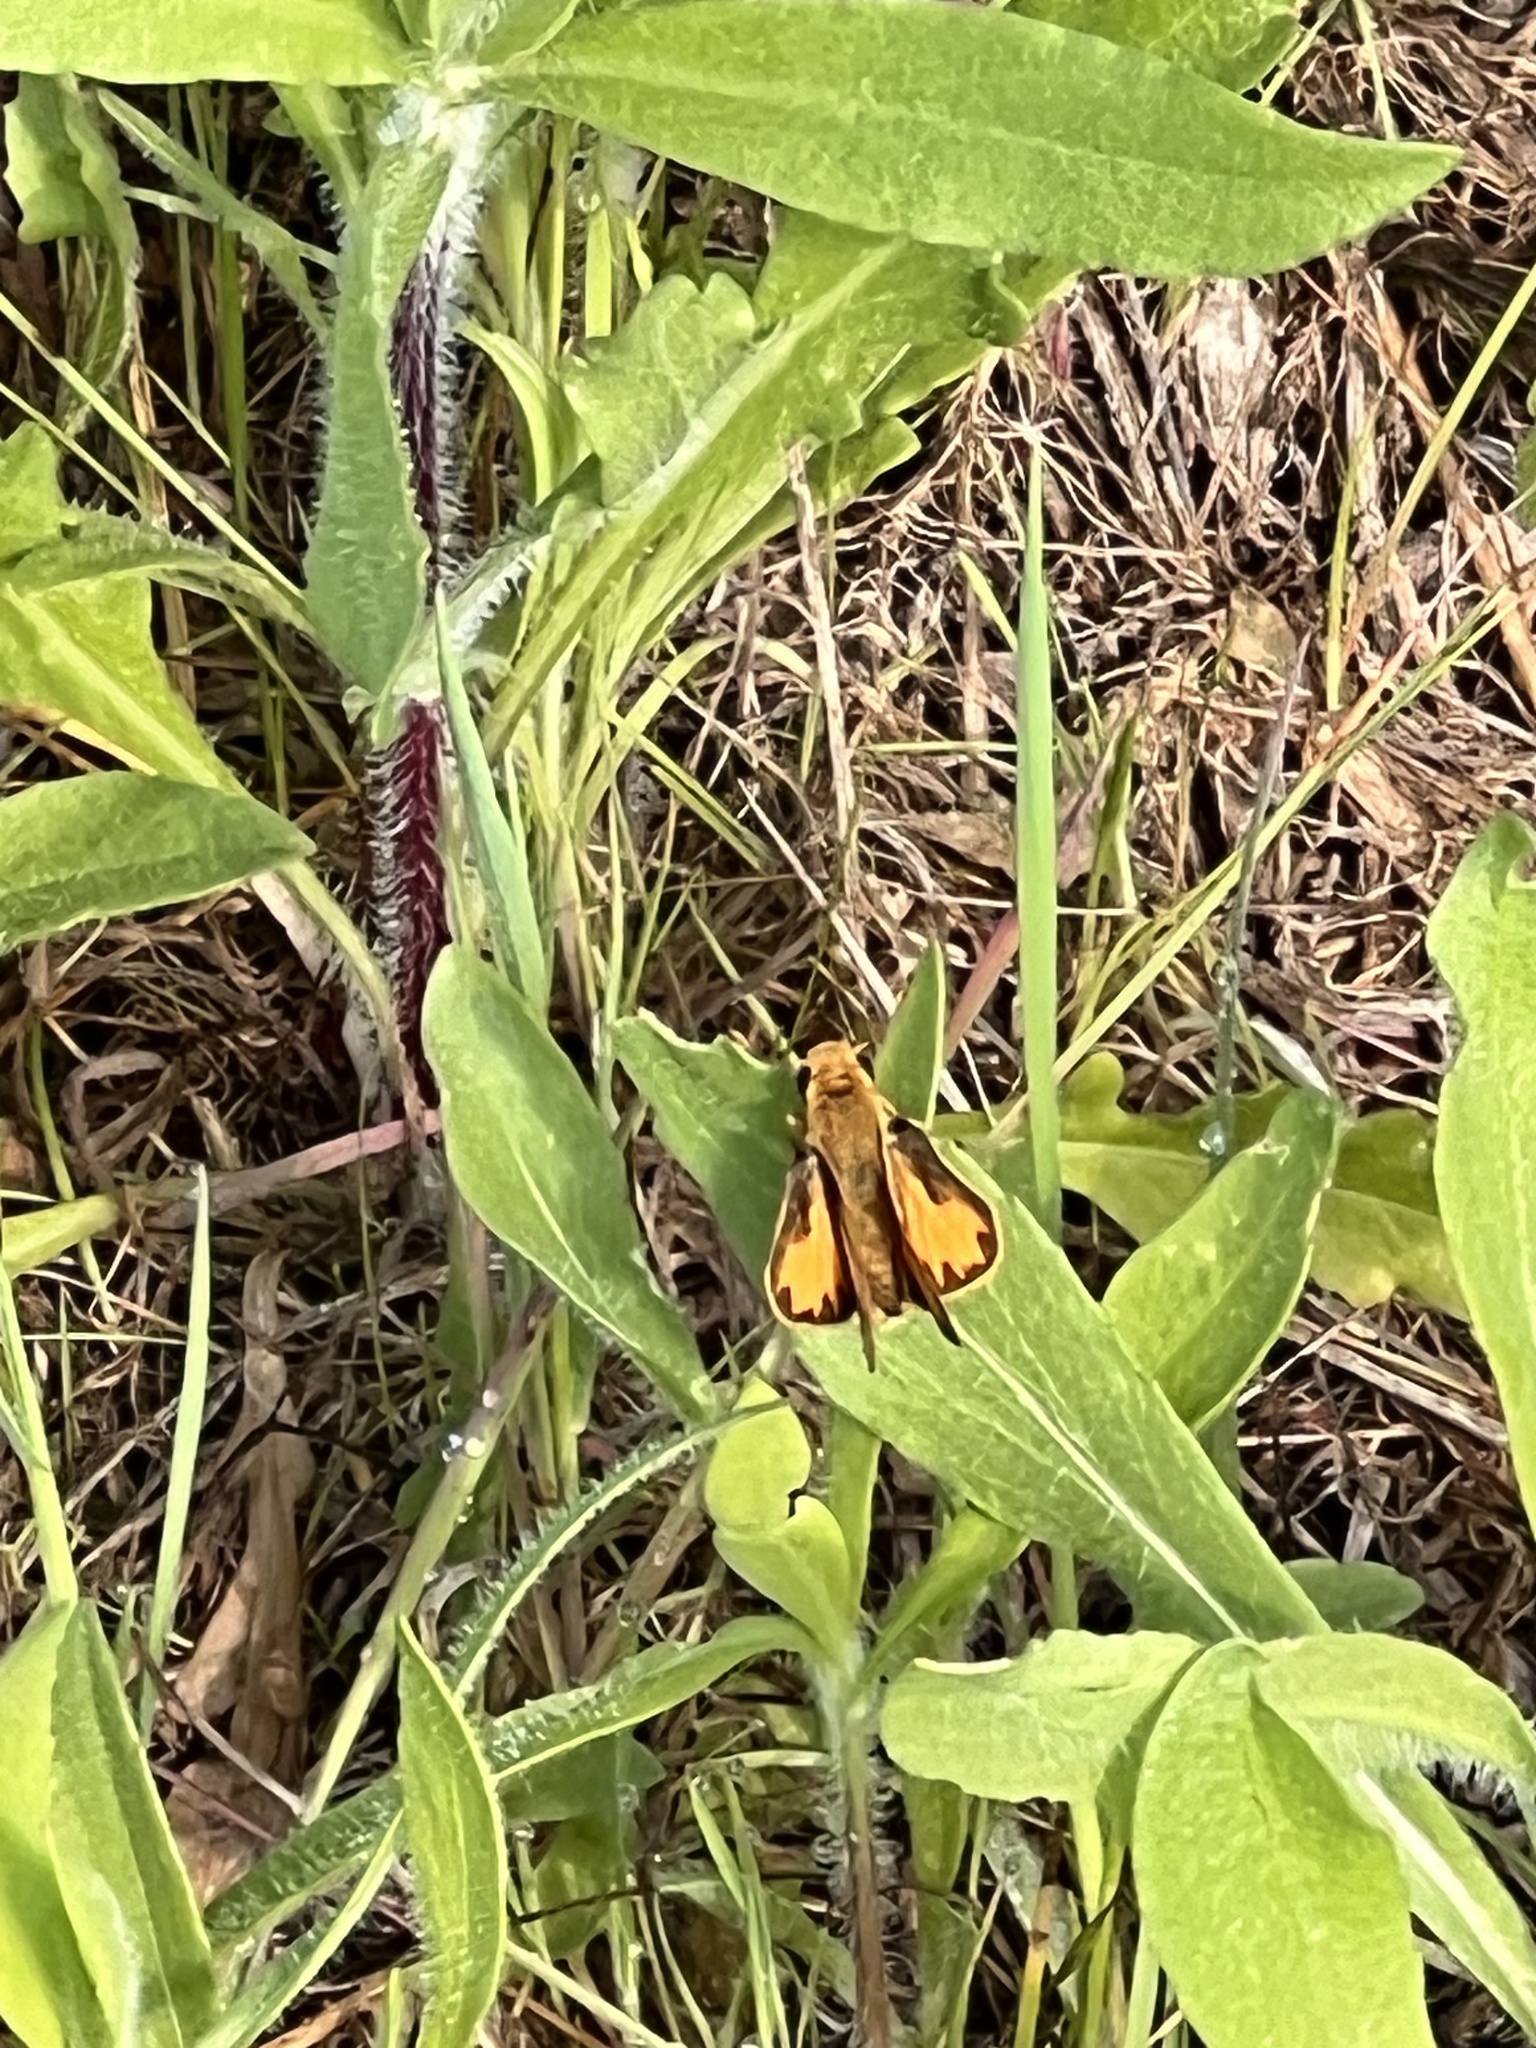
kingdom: Animalia
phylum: Arthropoda
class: Insecta
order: Lepidoptera
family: Hesperiidae
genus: Hylephila
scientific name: Hylephila phyleus
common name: Fiery skipper
